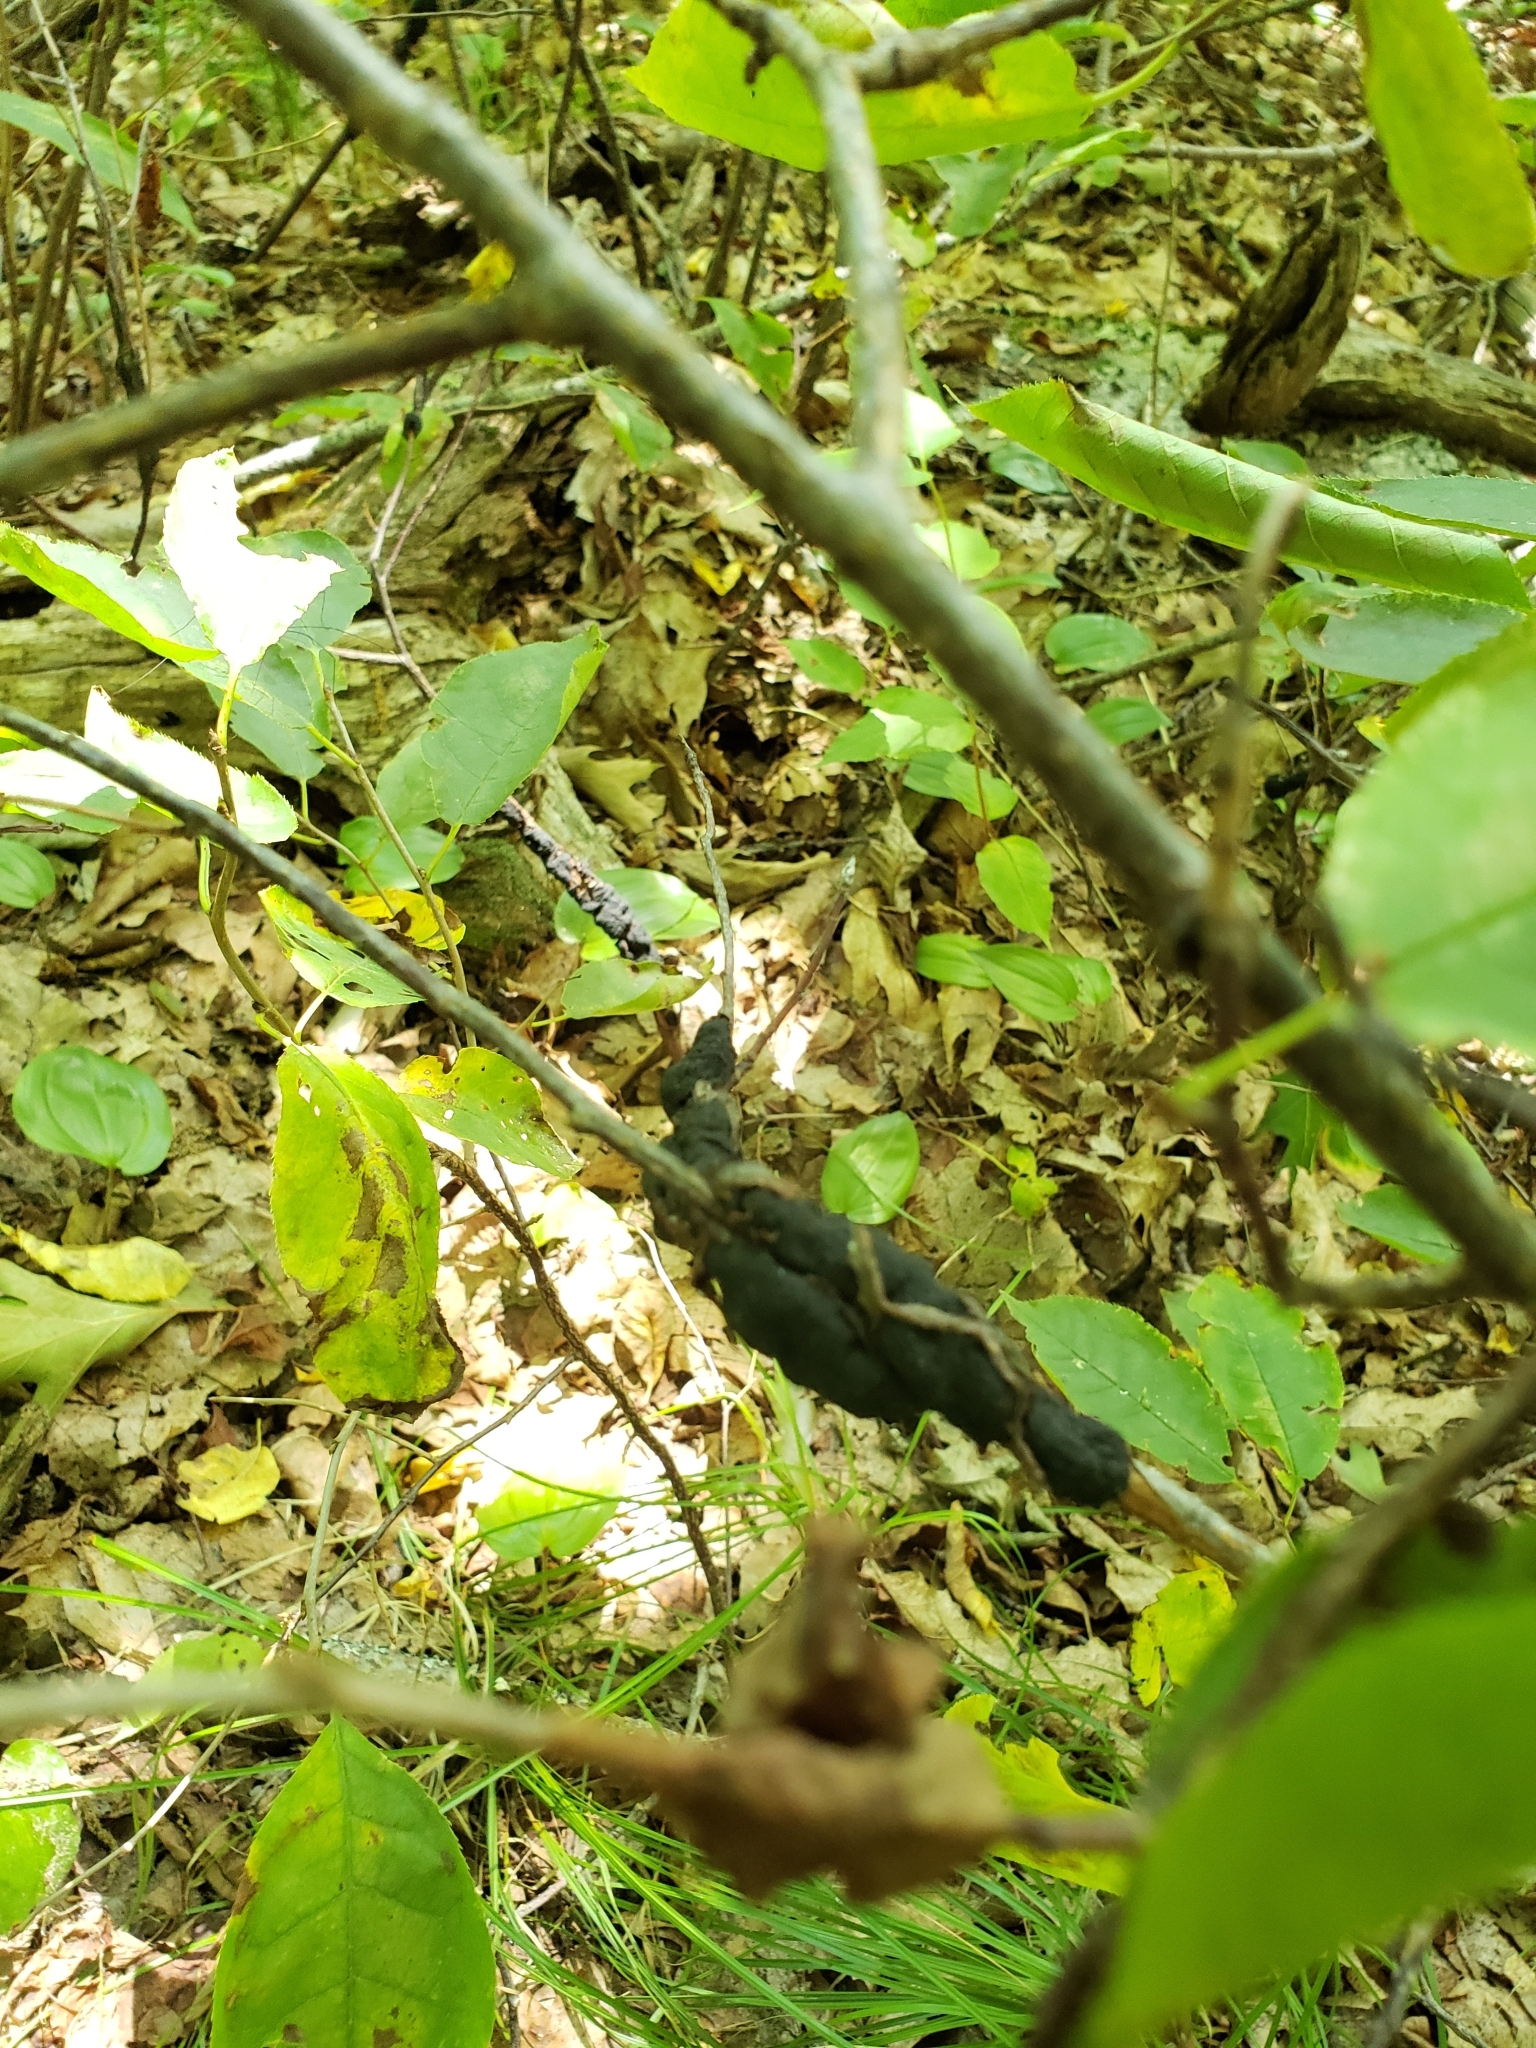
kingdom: Fungi
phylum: Ascomycota
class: Dothideomycetes
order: Venturiales
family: Venturiaceae
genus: Apiosporina
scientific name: Apiosporina morbosa
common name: Black knot
